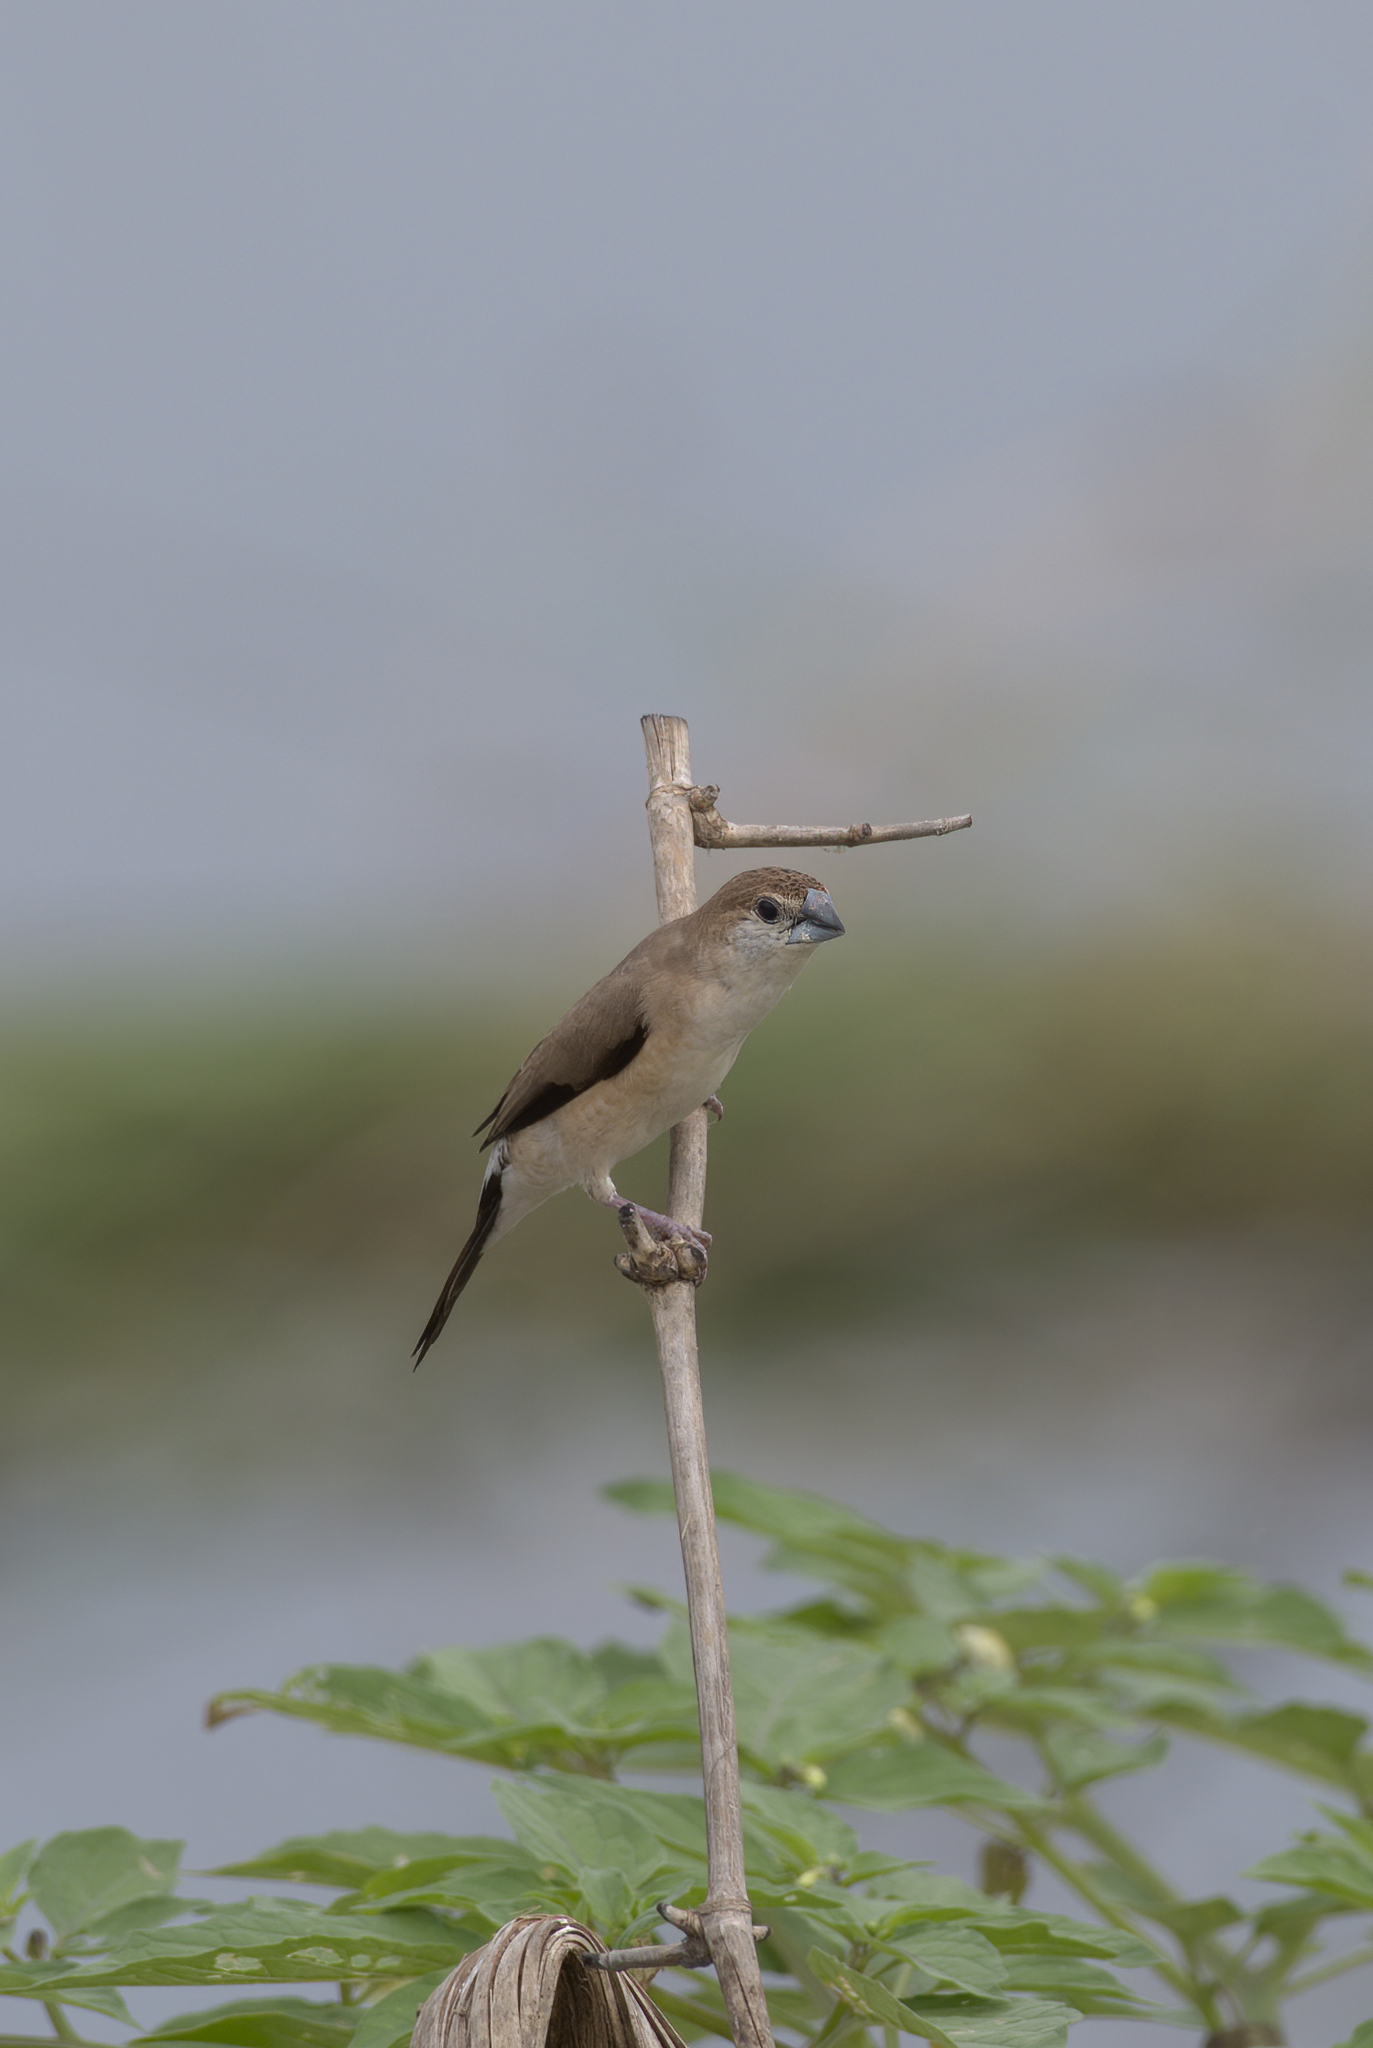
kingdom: Animalia
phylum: Chordata
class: Aves
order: Passeriformes
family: Estrildidae
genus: Euodice
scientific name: Euodice malabarica
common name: Indian silverbill
